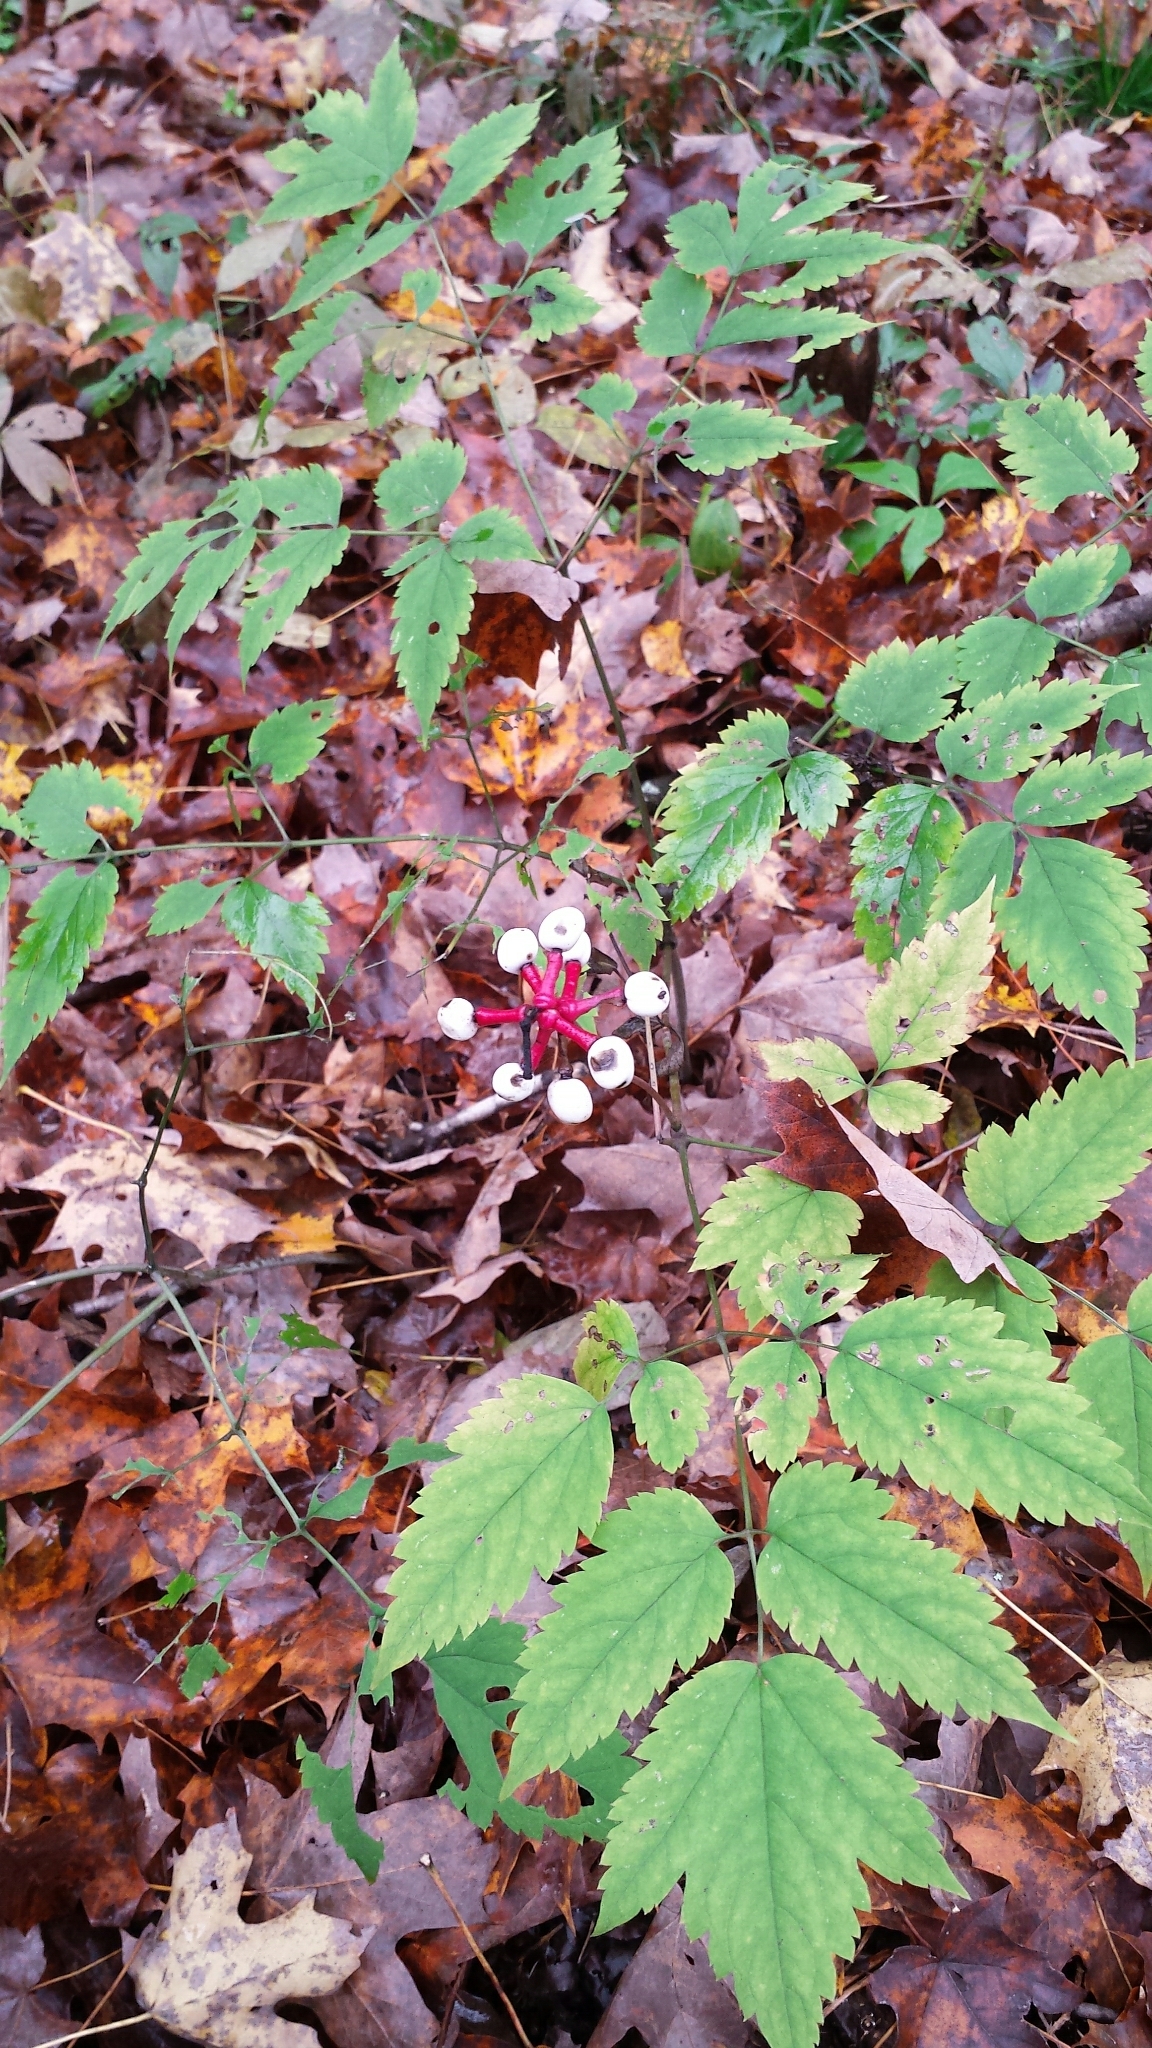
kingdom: Plantae
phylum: Tracheophyta
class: Magnoliopsida
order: Ranunculales
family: Ranunculaceae
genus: Actaea
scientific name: Actaea pachypoda
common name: Doll's-eyes
